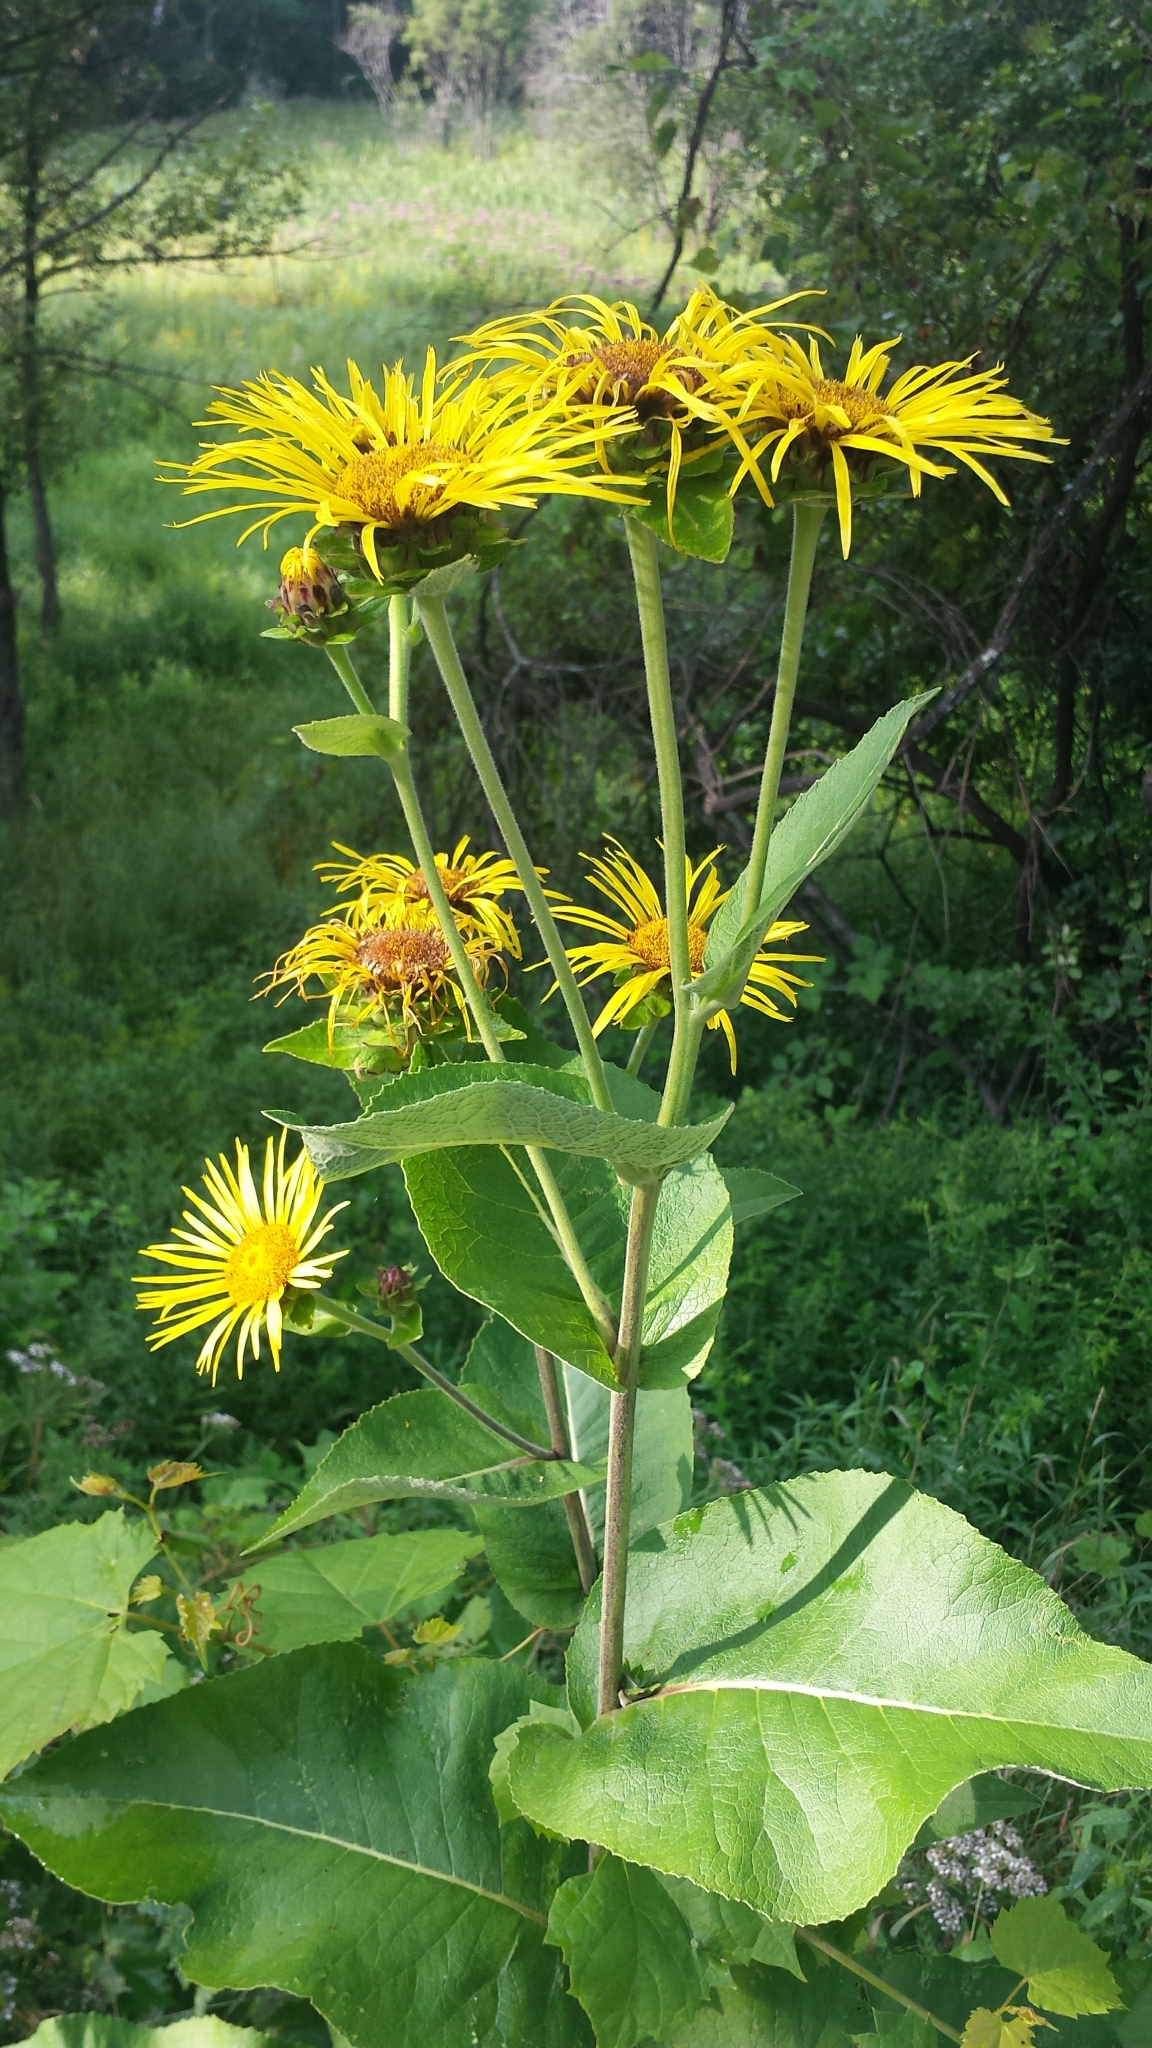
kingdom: Plantae
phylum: Tracheophyta
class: Magnoliopsida
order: Asterales
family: Asteraceae
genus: Inula
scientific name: Inula helenium
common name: Elecampane
